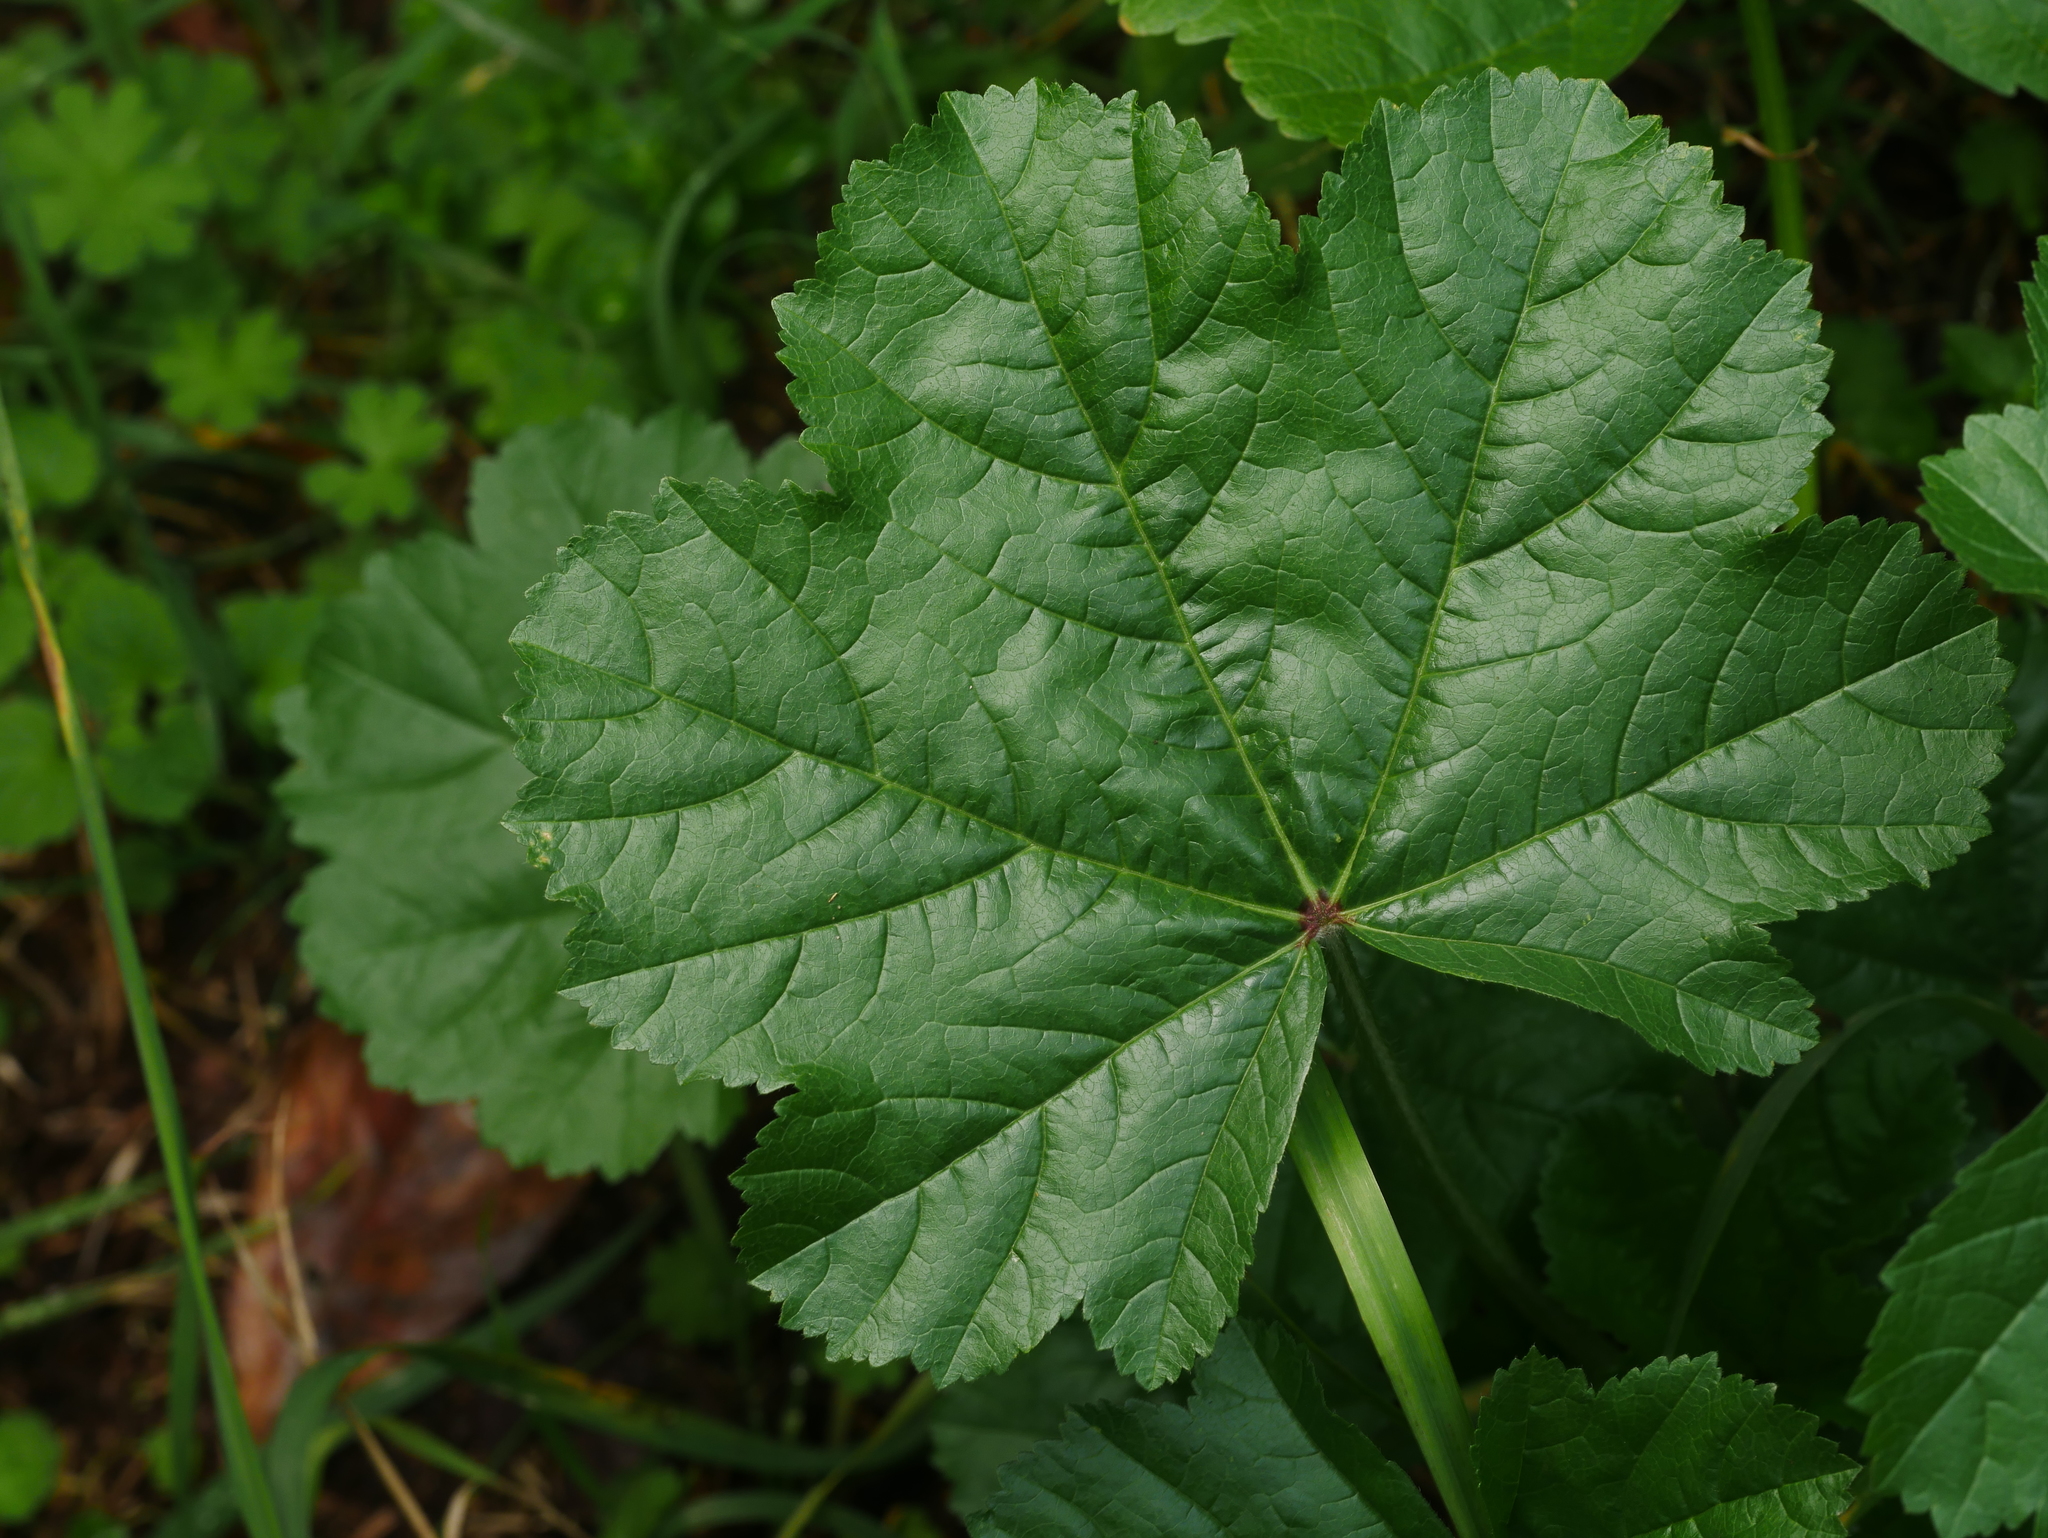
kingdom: Plantae
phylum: Tracheophyta
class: Magnoliopsida
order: Malvales
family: Malvaceae
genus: Malva
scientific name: Malva sylvestris
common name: Common mallow
